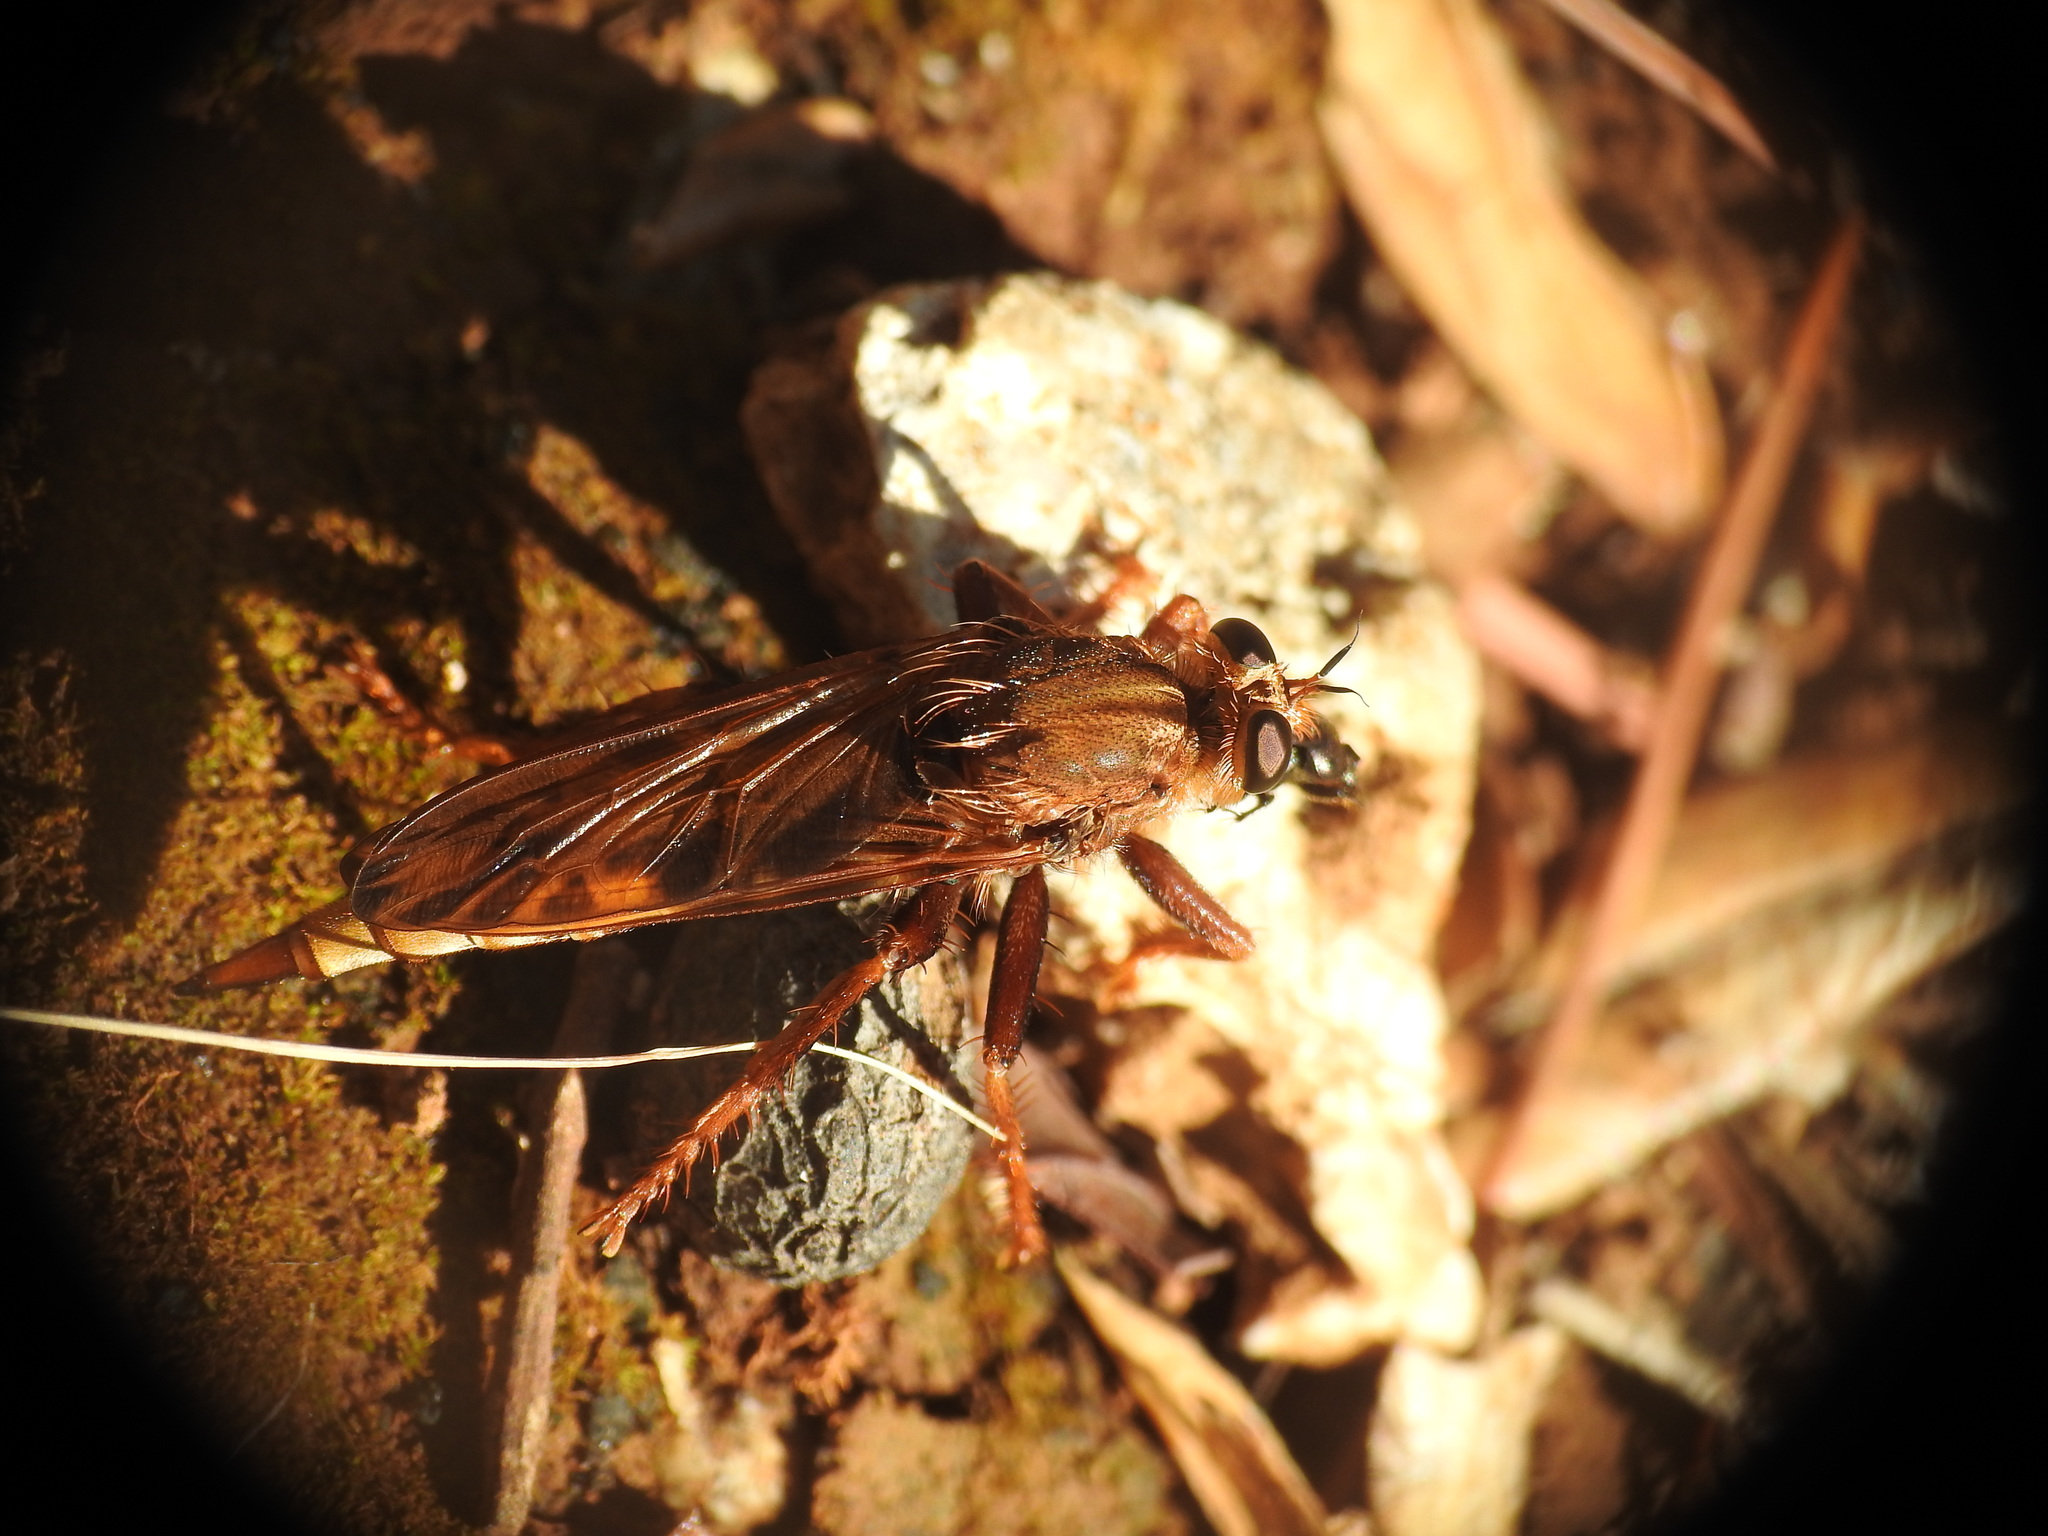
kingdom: Animalia
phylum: Arthropoda
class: Insecta
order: Diptera
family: Asilidae
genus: Asilus
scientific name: Asilus crabroniformis
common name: Hornet robberfly
